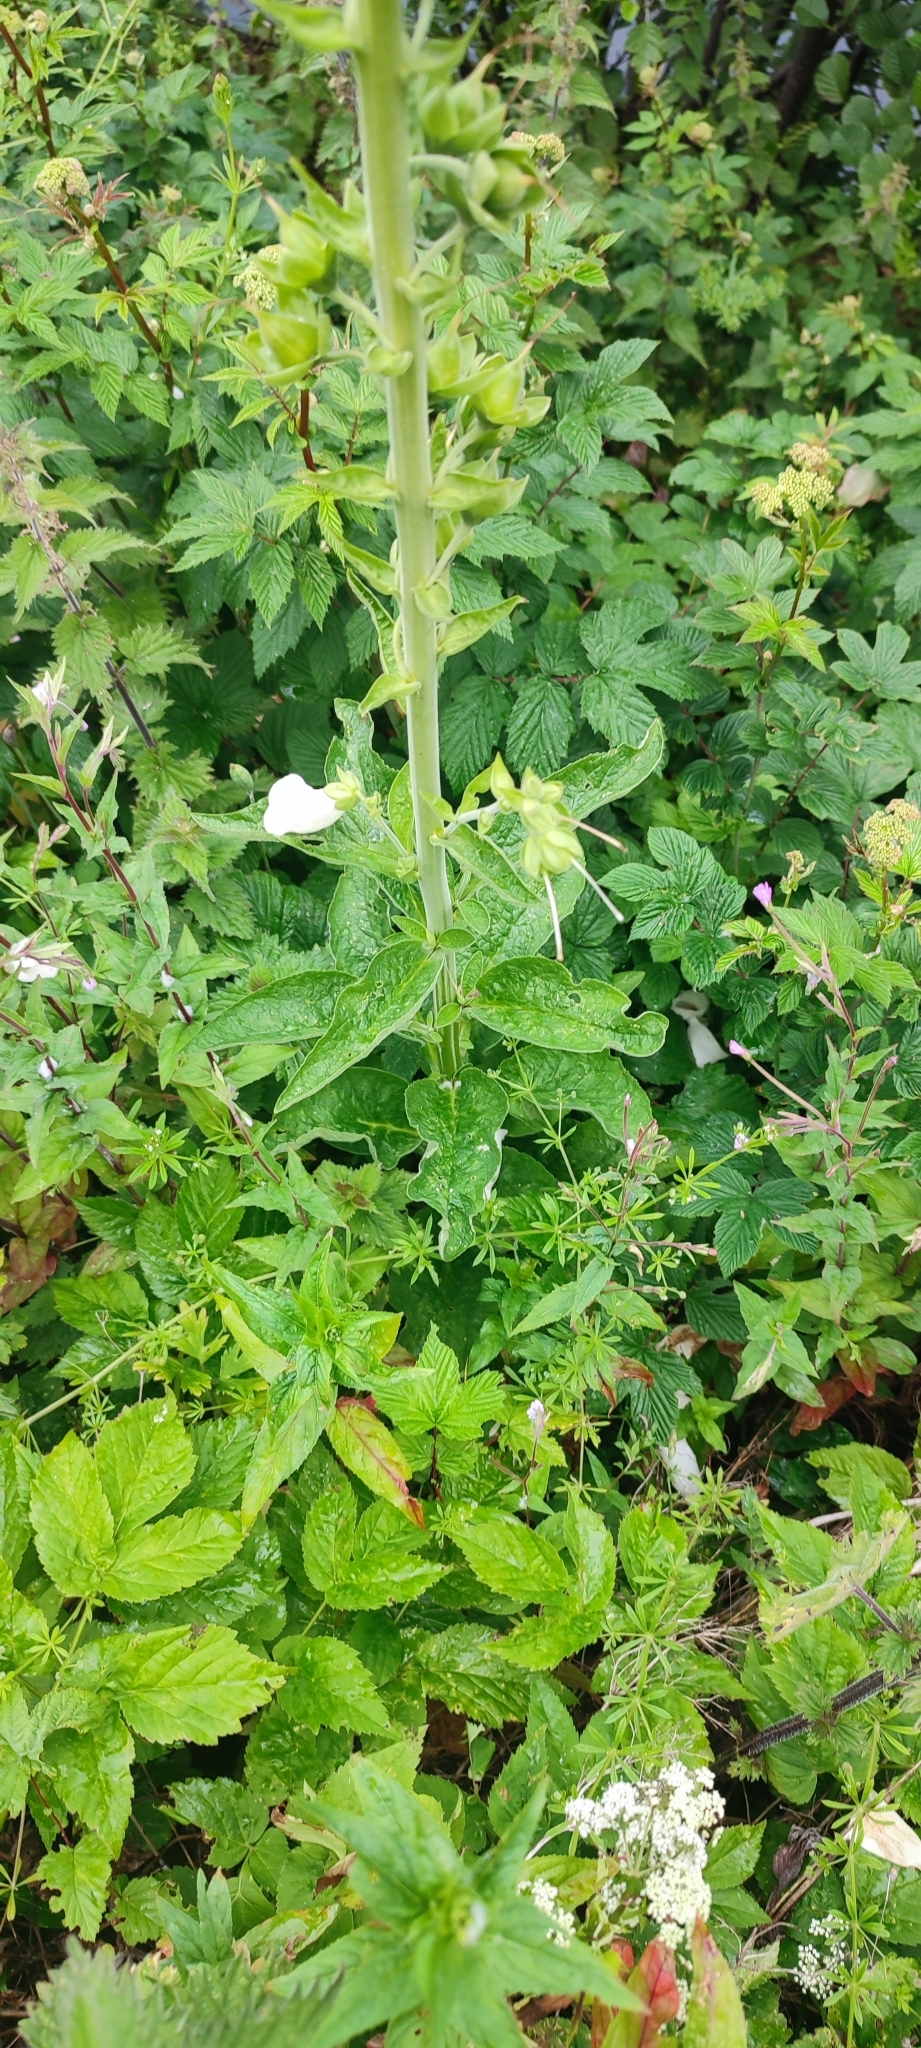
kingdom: Plantae
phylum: Tracheophyta
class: Magnoliopsida
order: Lamiales
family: Plantaginaceae
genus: Digitalis
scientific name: Digitalis purpurea
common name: Foxglove
